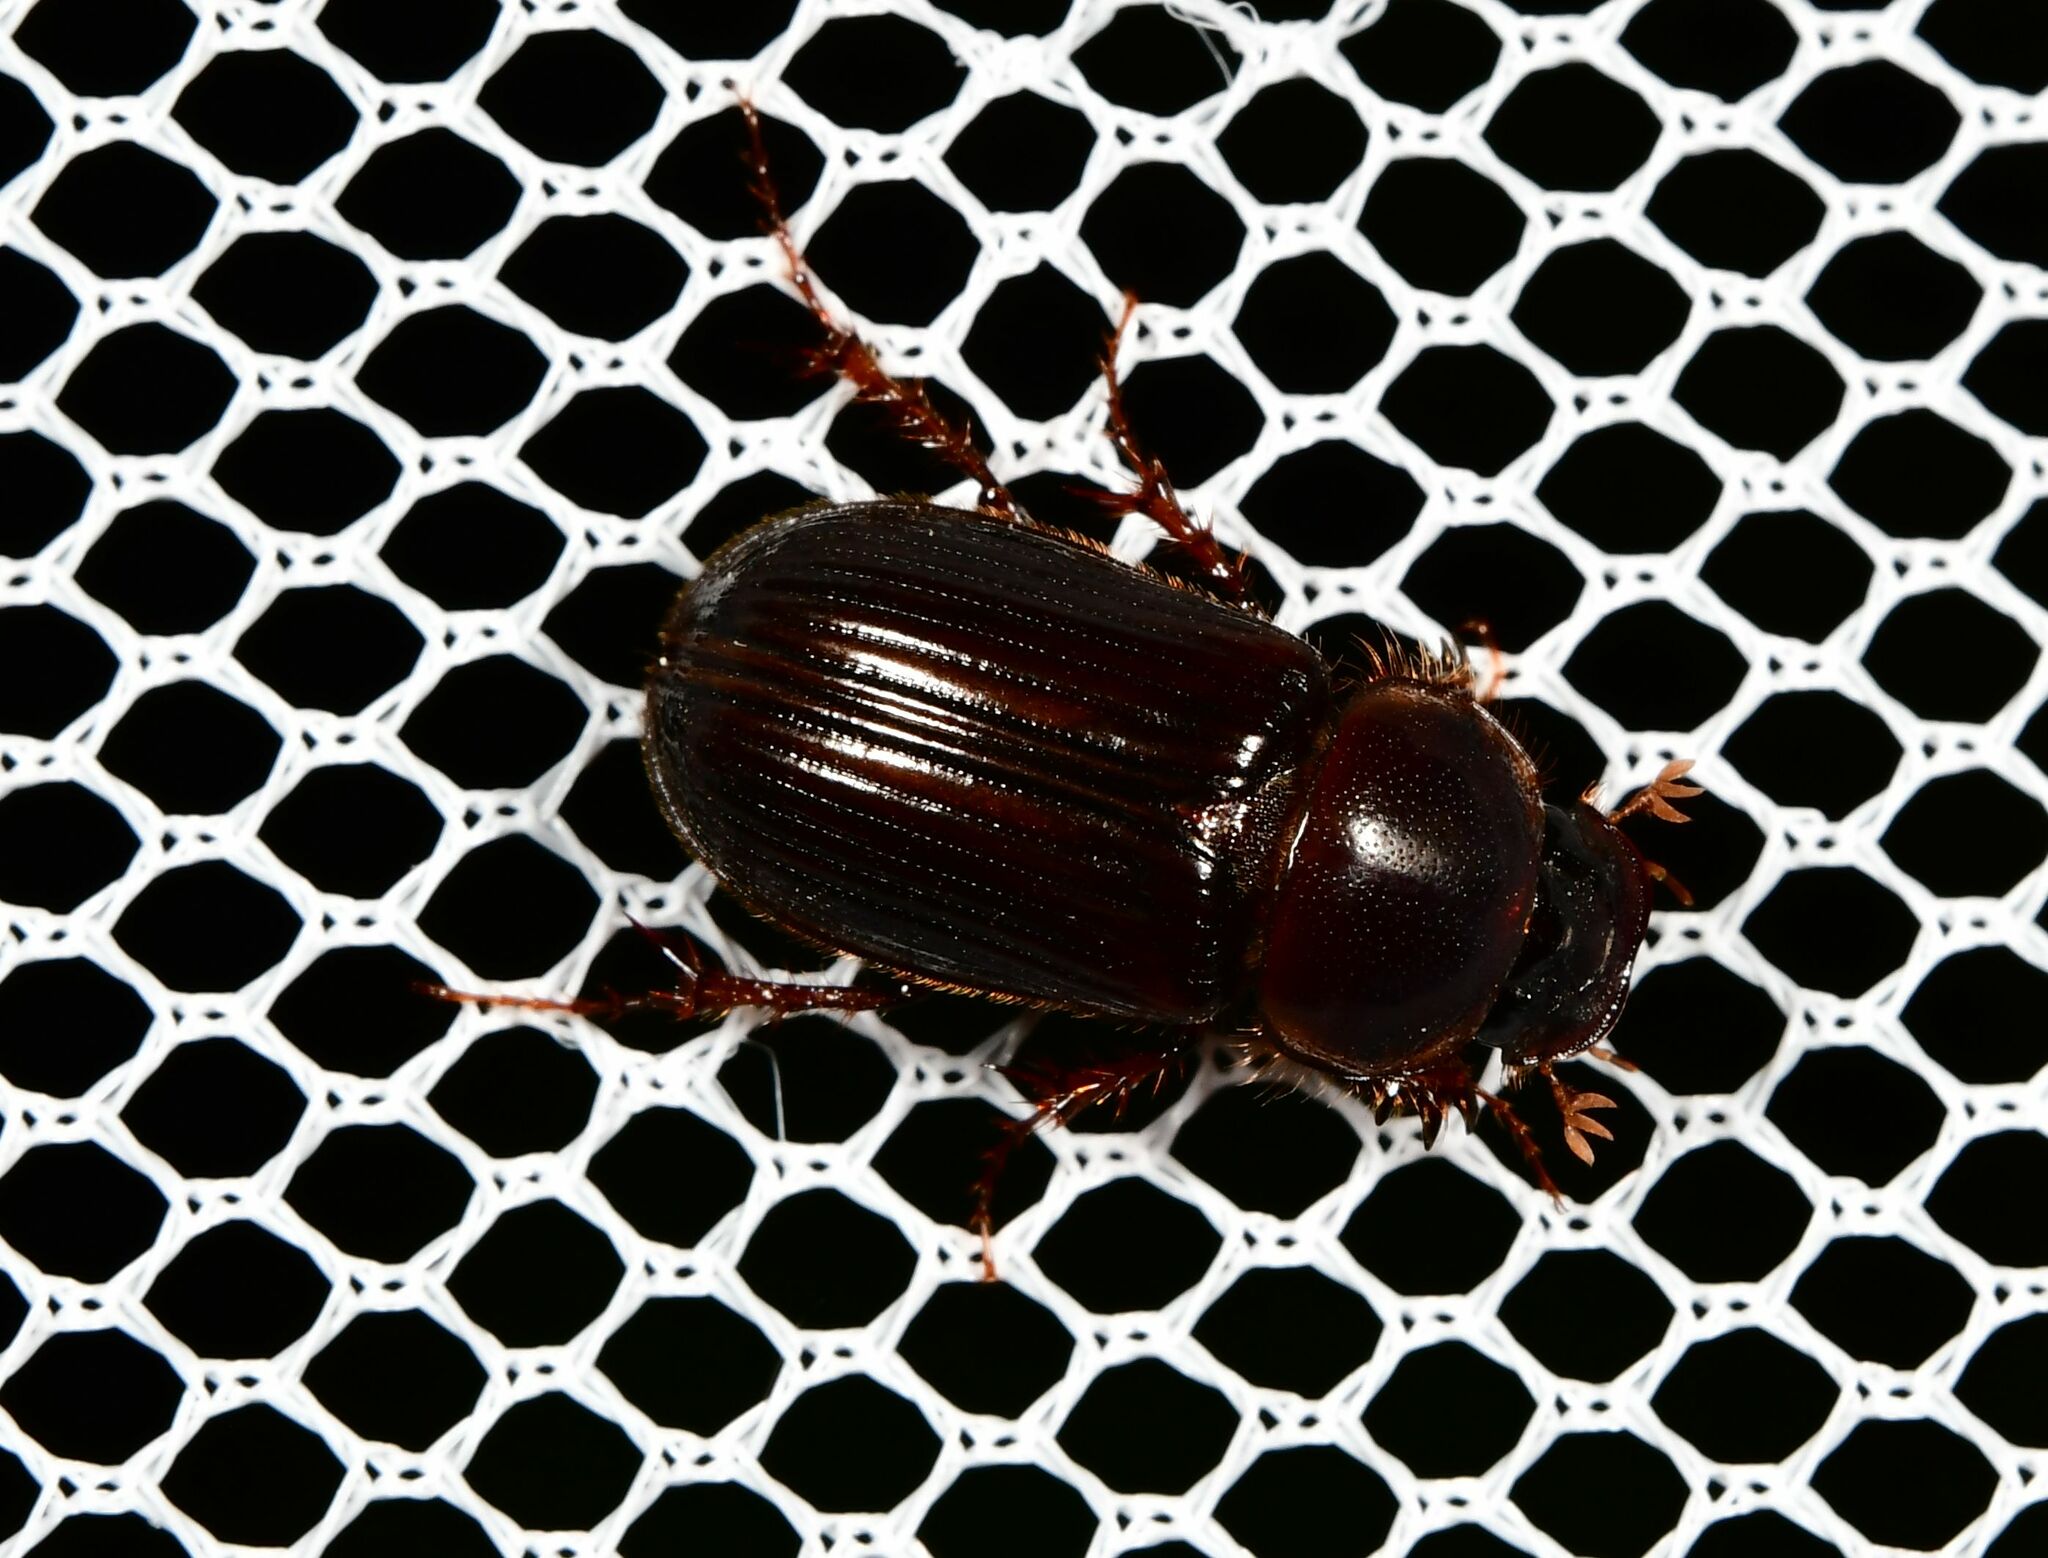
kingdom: Animalia
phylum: Arthropoda
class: Insecta
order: Coleoptera
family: Scarabaeidae
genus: Acrossidius
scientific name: Acrossidius tasmaniae
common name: Black-headed pasture cockchafer
